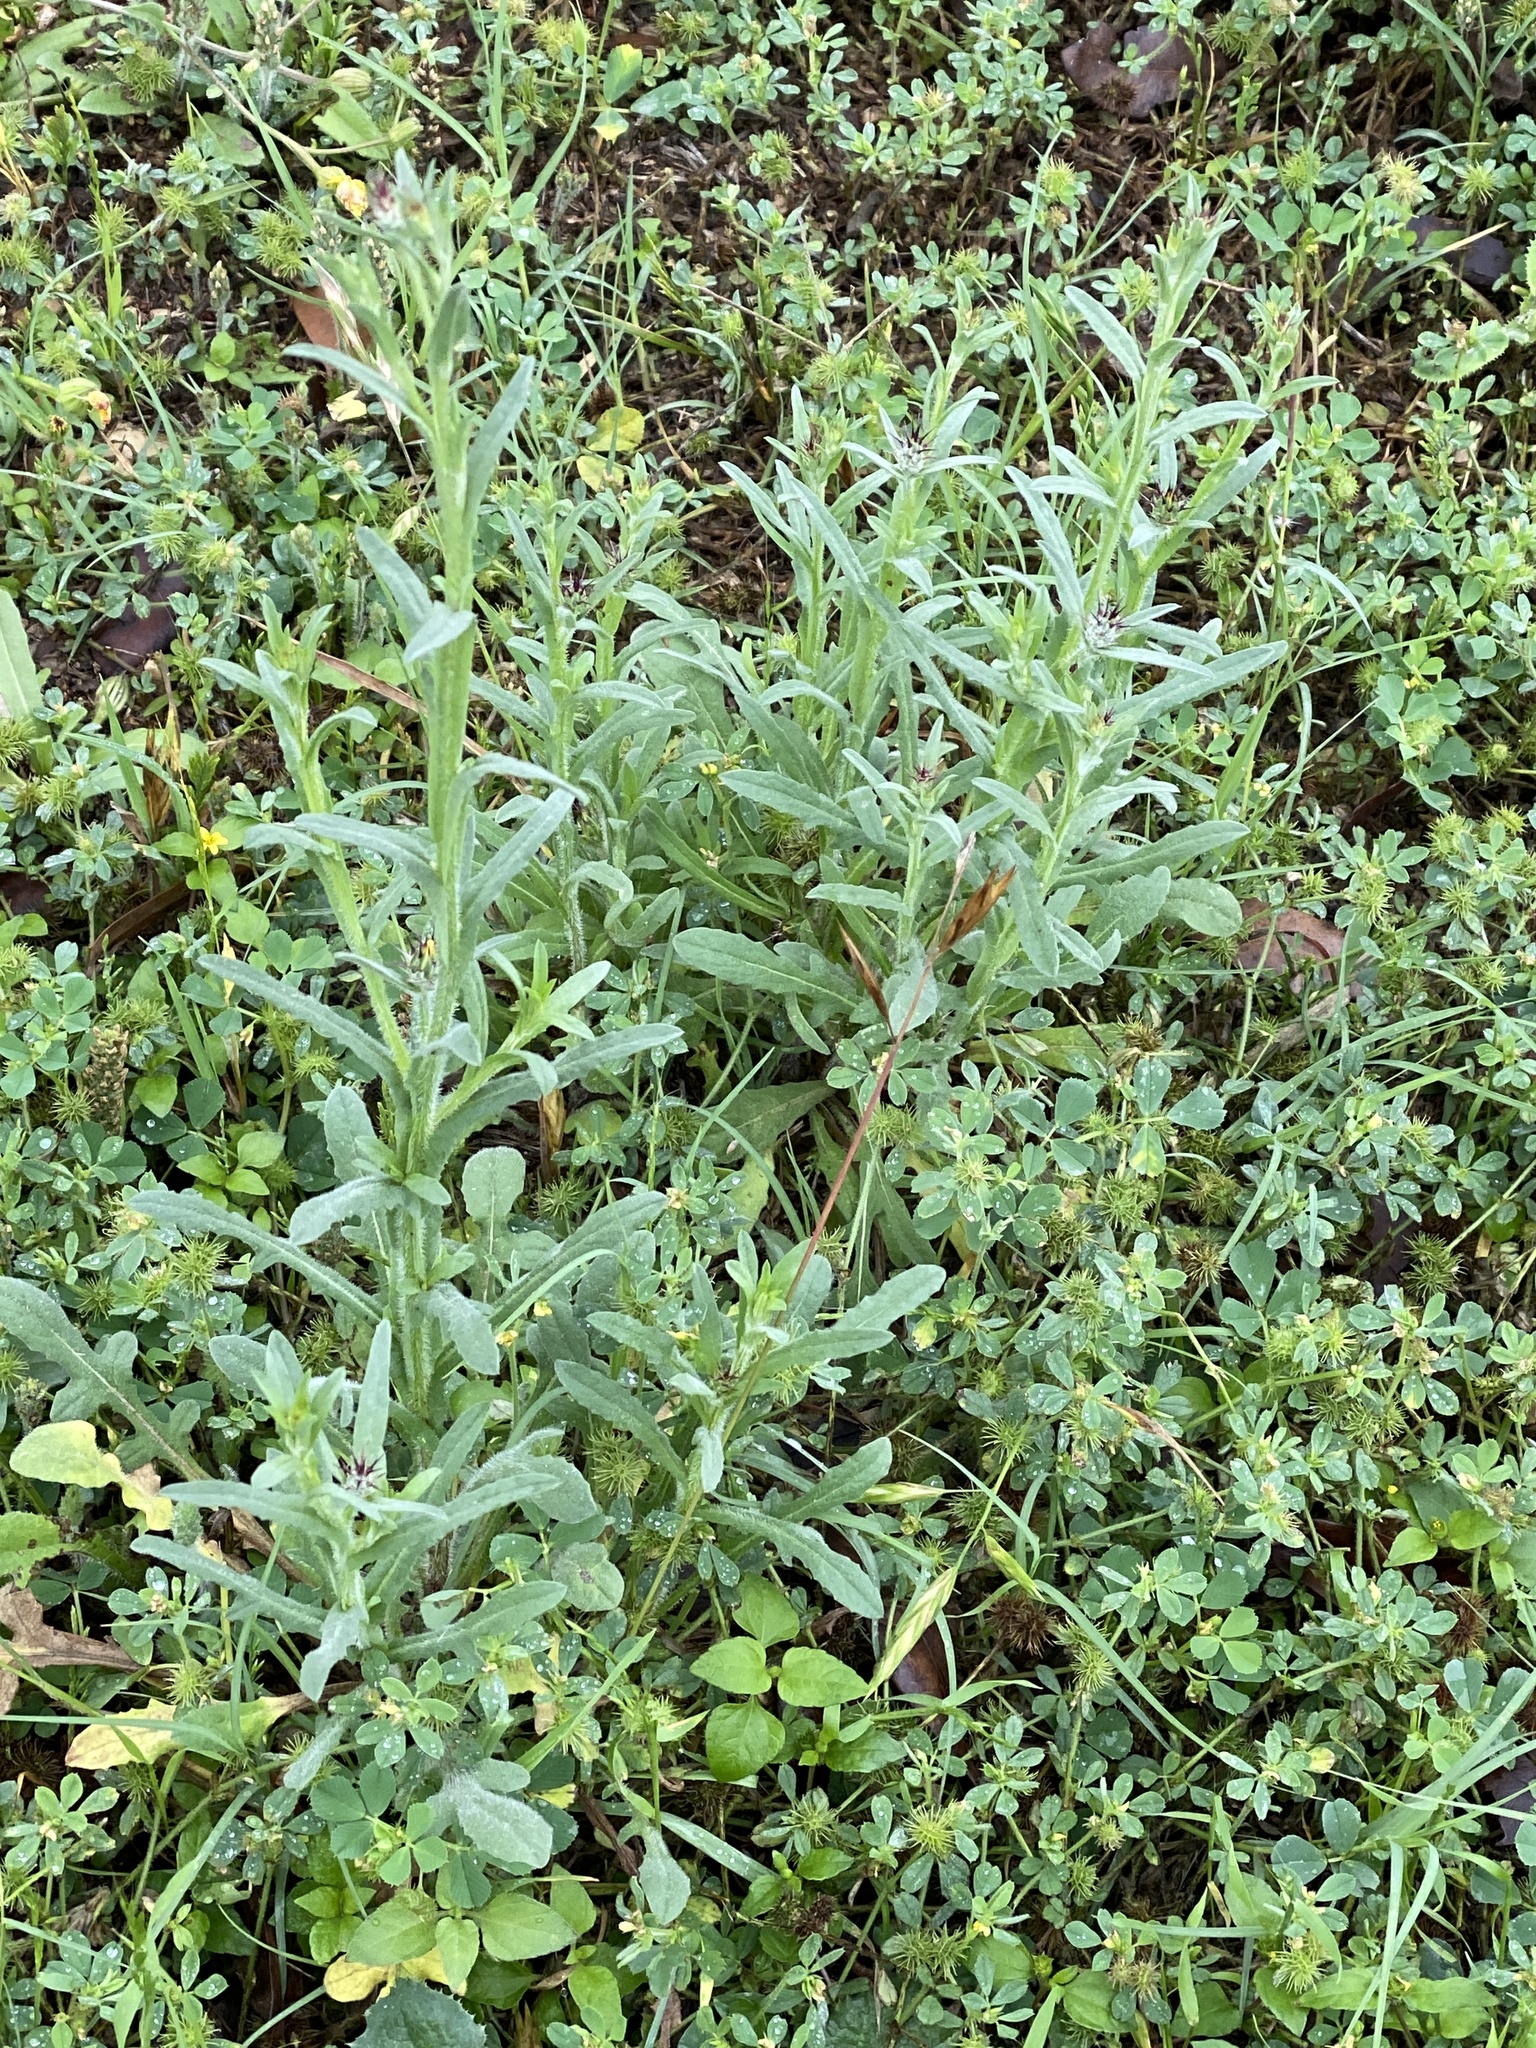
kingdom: Plantae
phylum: Tracheophyta
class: Magnoliopsida
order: Asterales
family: Asteraceae
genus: Centaurea
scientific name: Centaurea melitensis
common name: Maltese star-thistle
